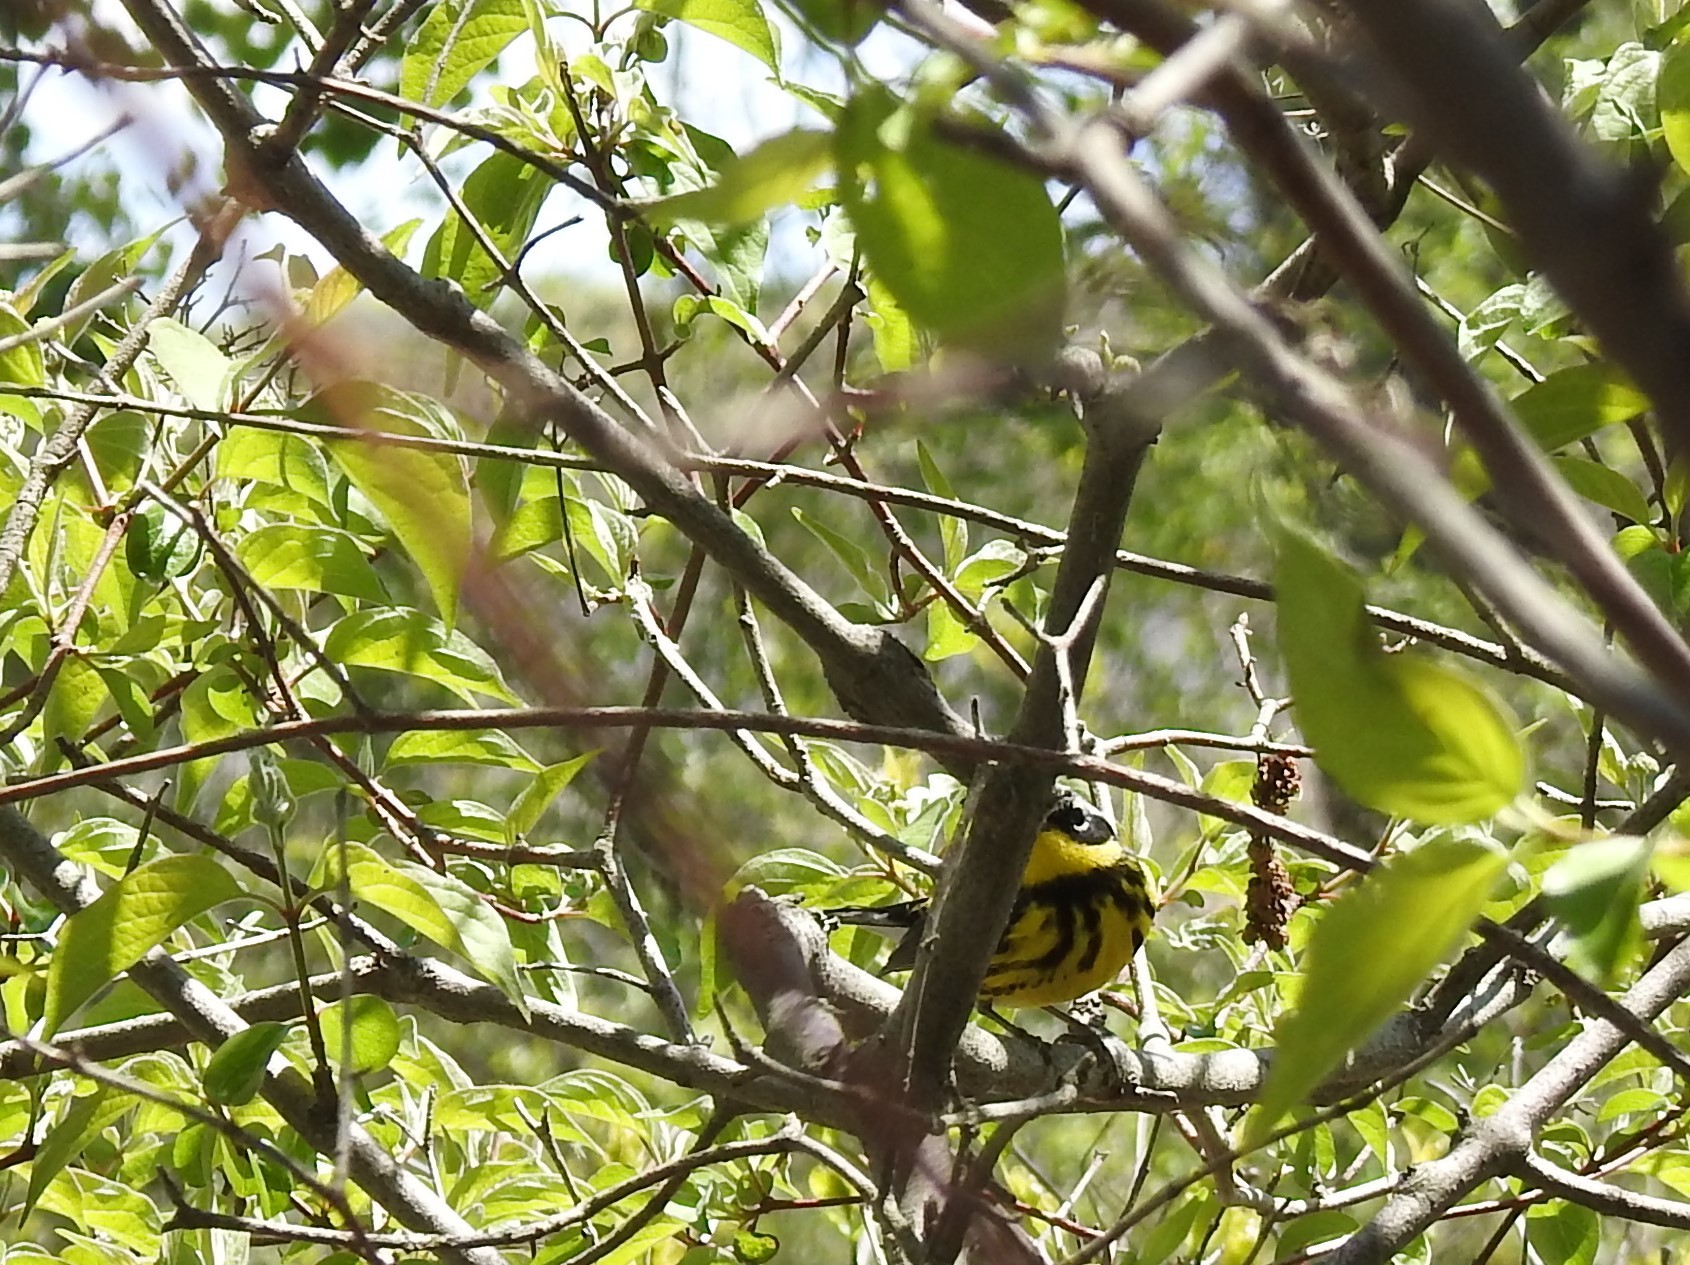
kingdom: Animalia
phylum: Chordata
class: Aves
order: Passeriformes
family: Parulidae
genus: Setophaga
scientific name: Setophaga magnolia
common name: Magnolia warbler
